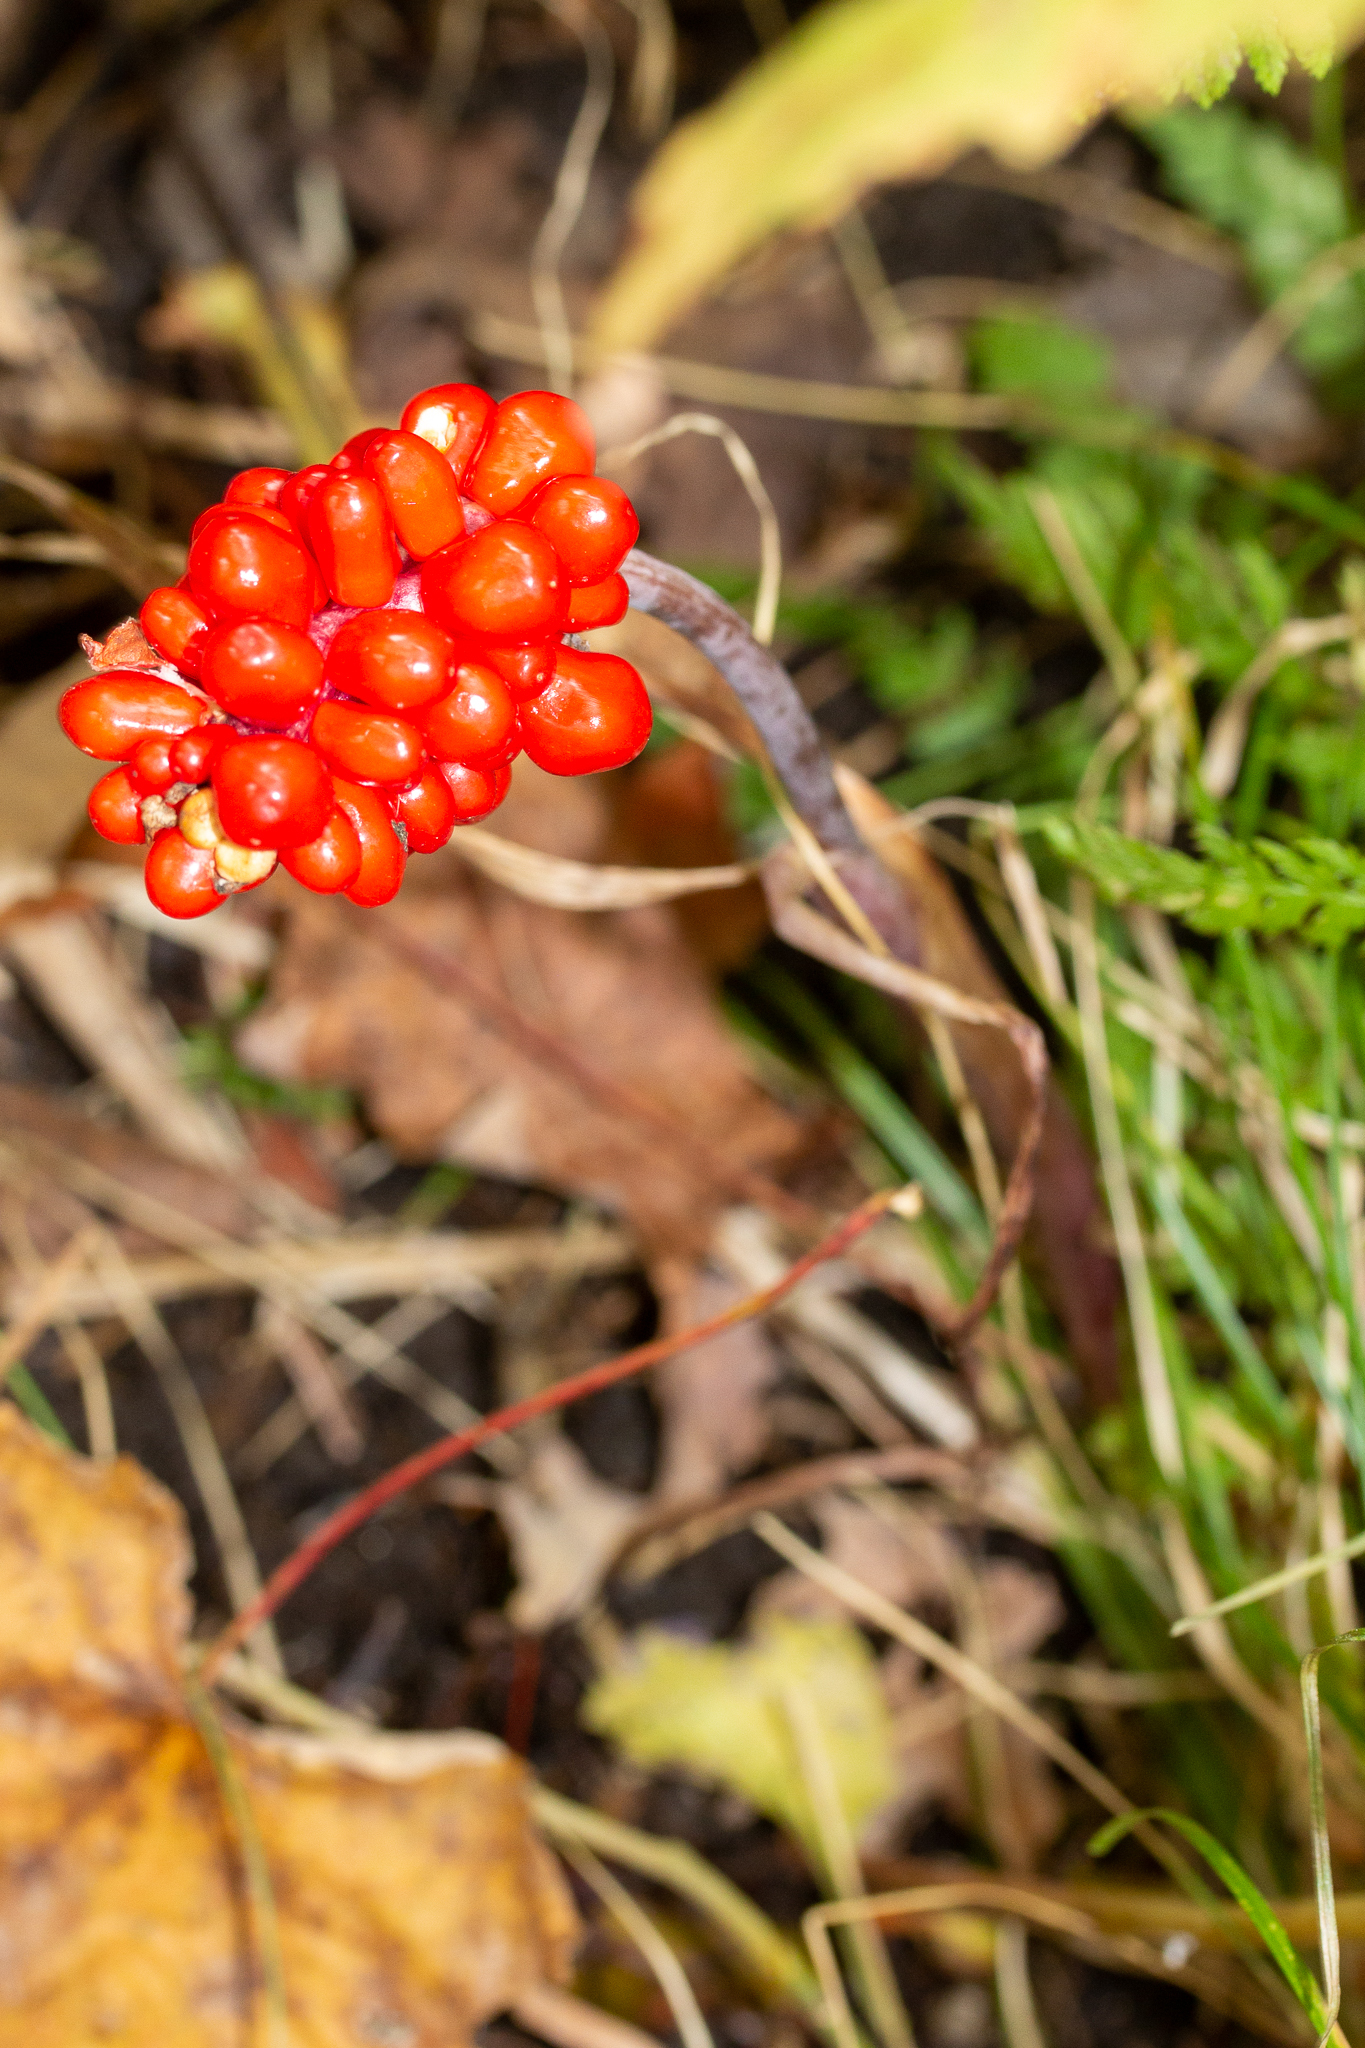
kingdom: Plantae
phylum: Tracheophyta
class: Liliopsida
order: Alismatales
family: Araceae
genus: Arisaema
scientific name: Arisaema triphyllum
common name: Jack-in-the-pulpit
